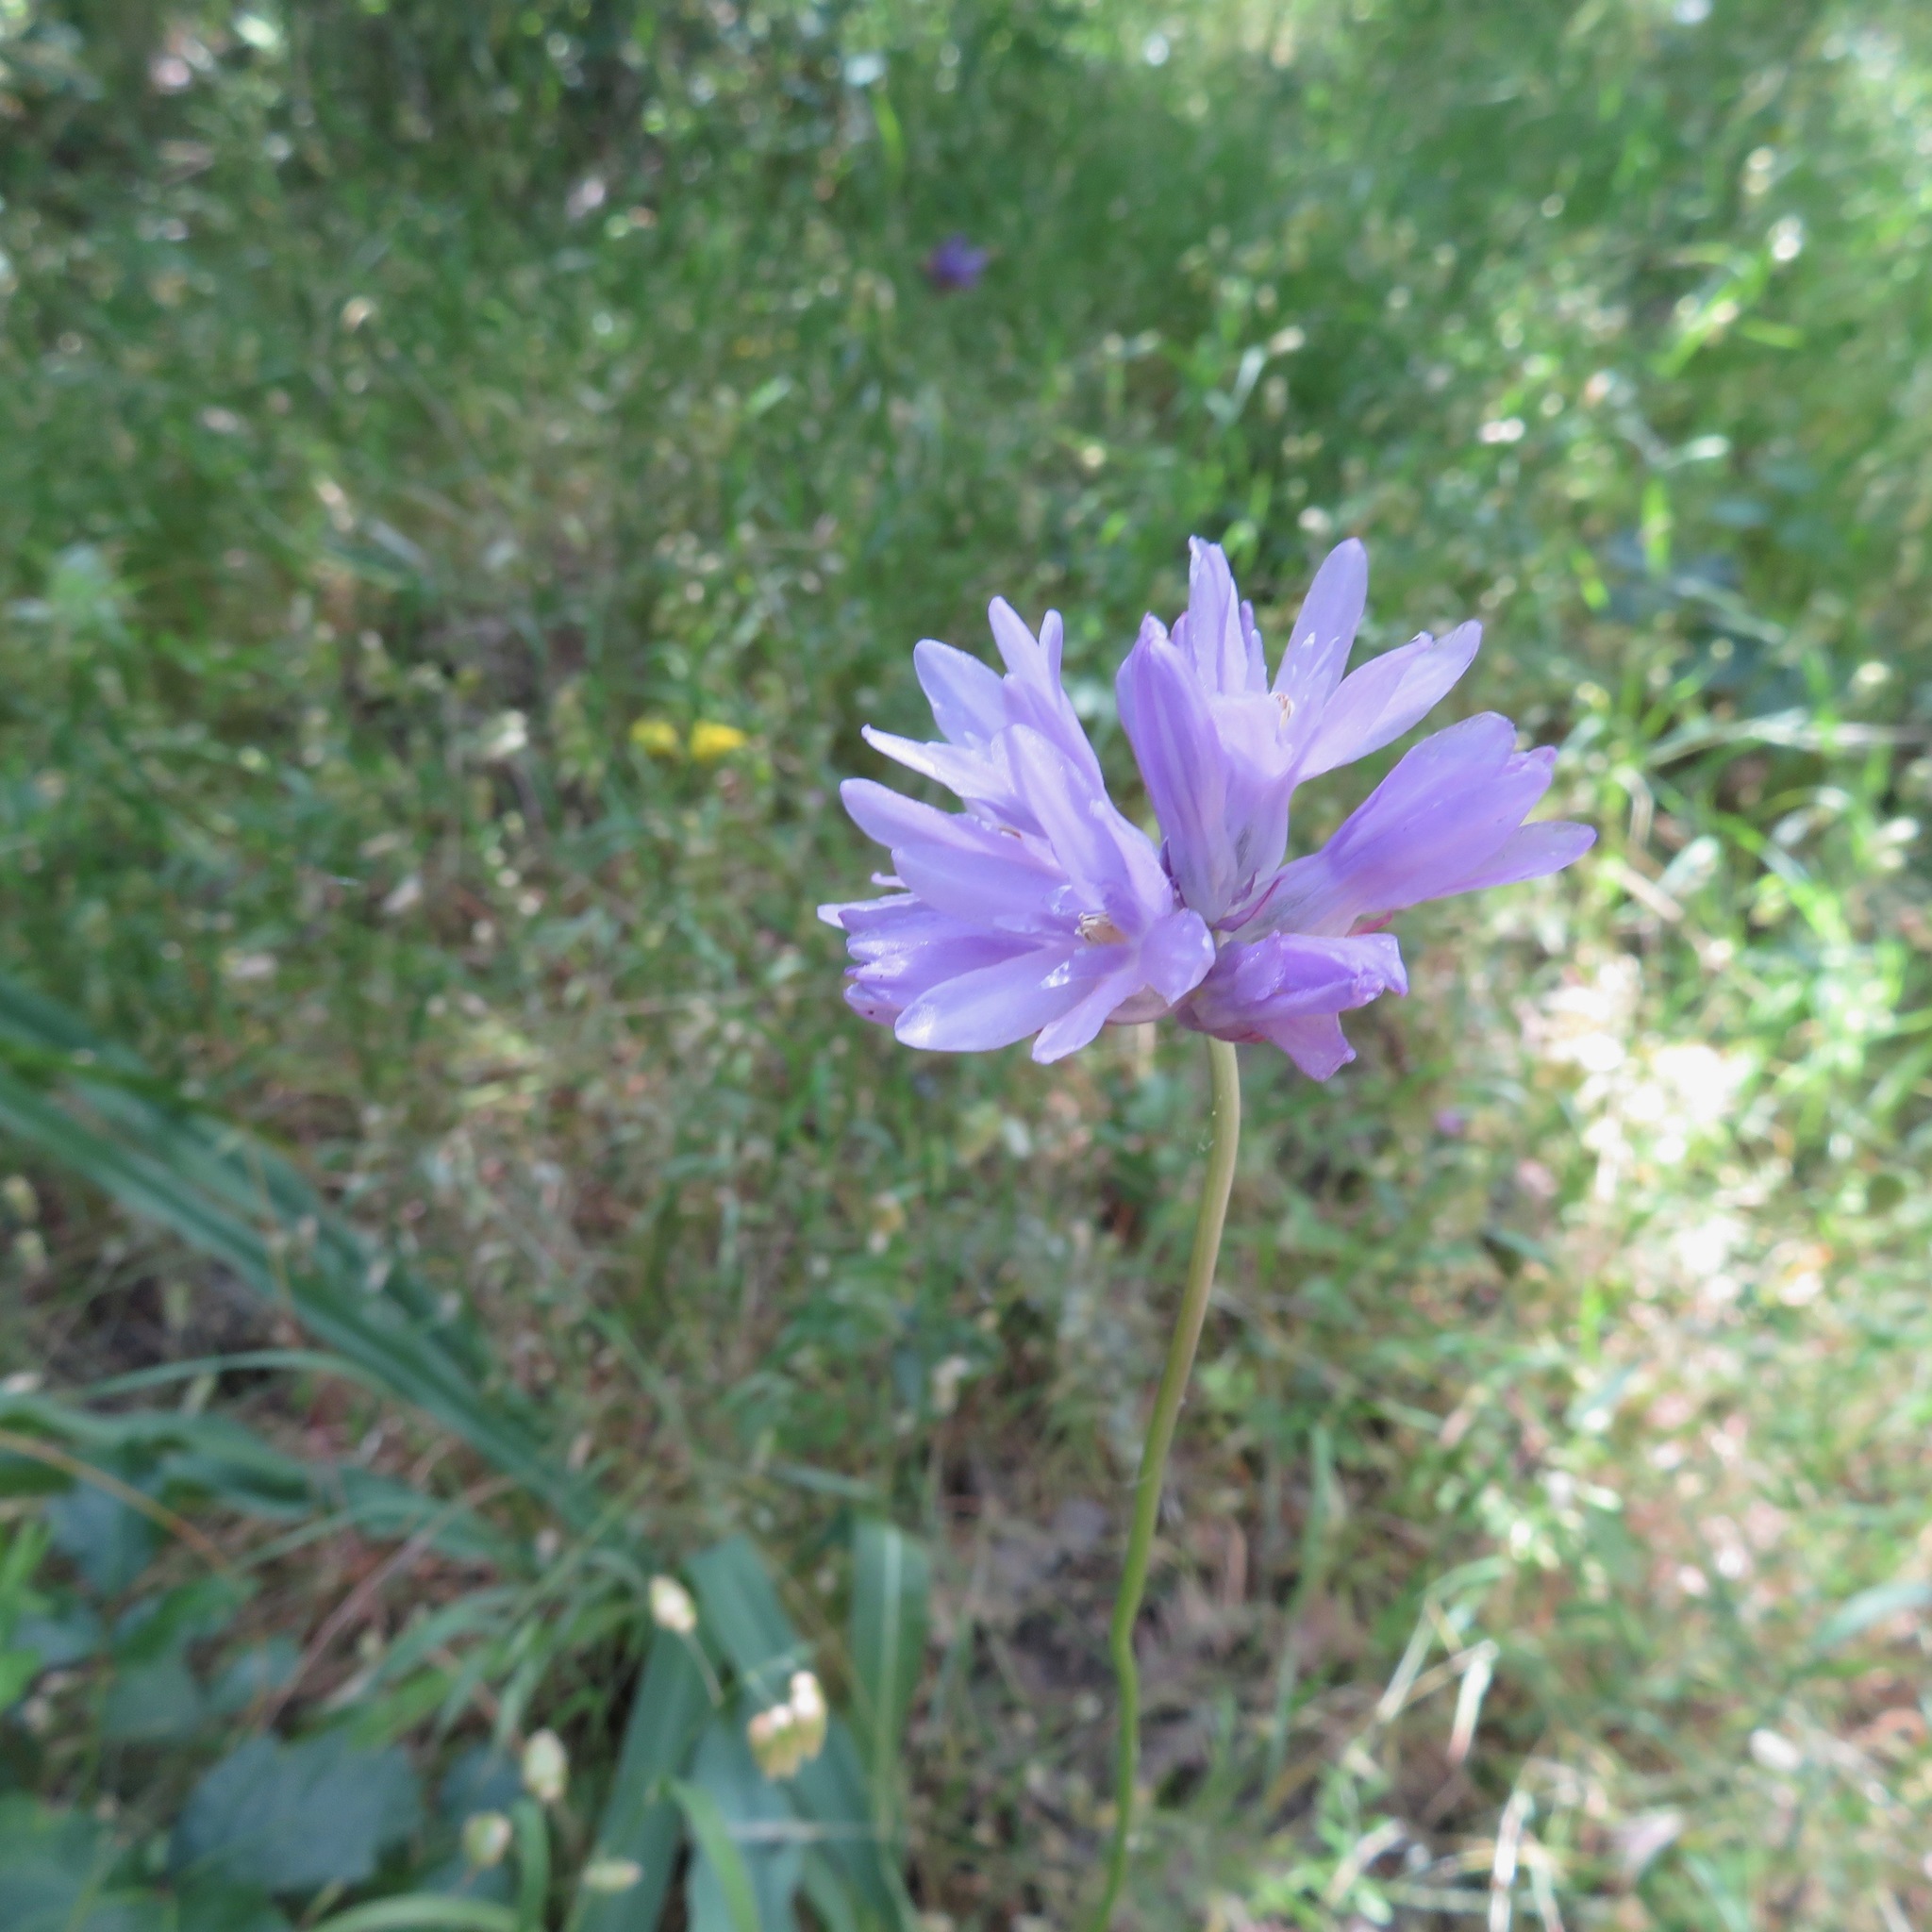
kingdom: Plantae
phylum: Tracheophyta
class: Liliopsida
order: Asparagales
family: Asparagaceae
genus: Dichelostemma
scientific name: Dichelostemma congestum
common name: Fork-tooth ookow
